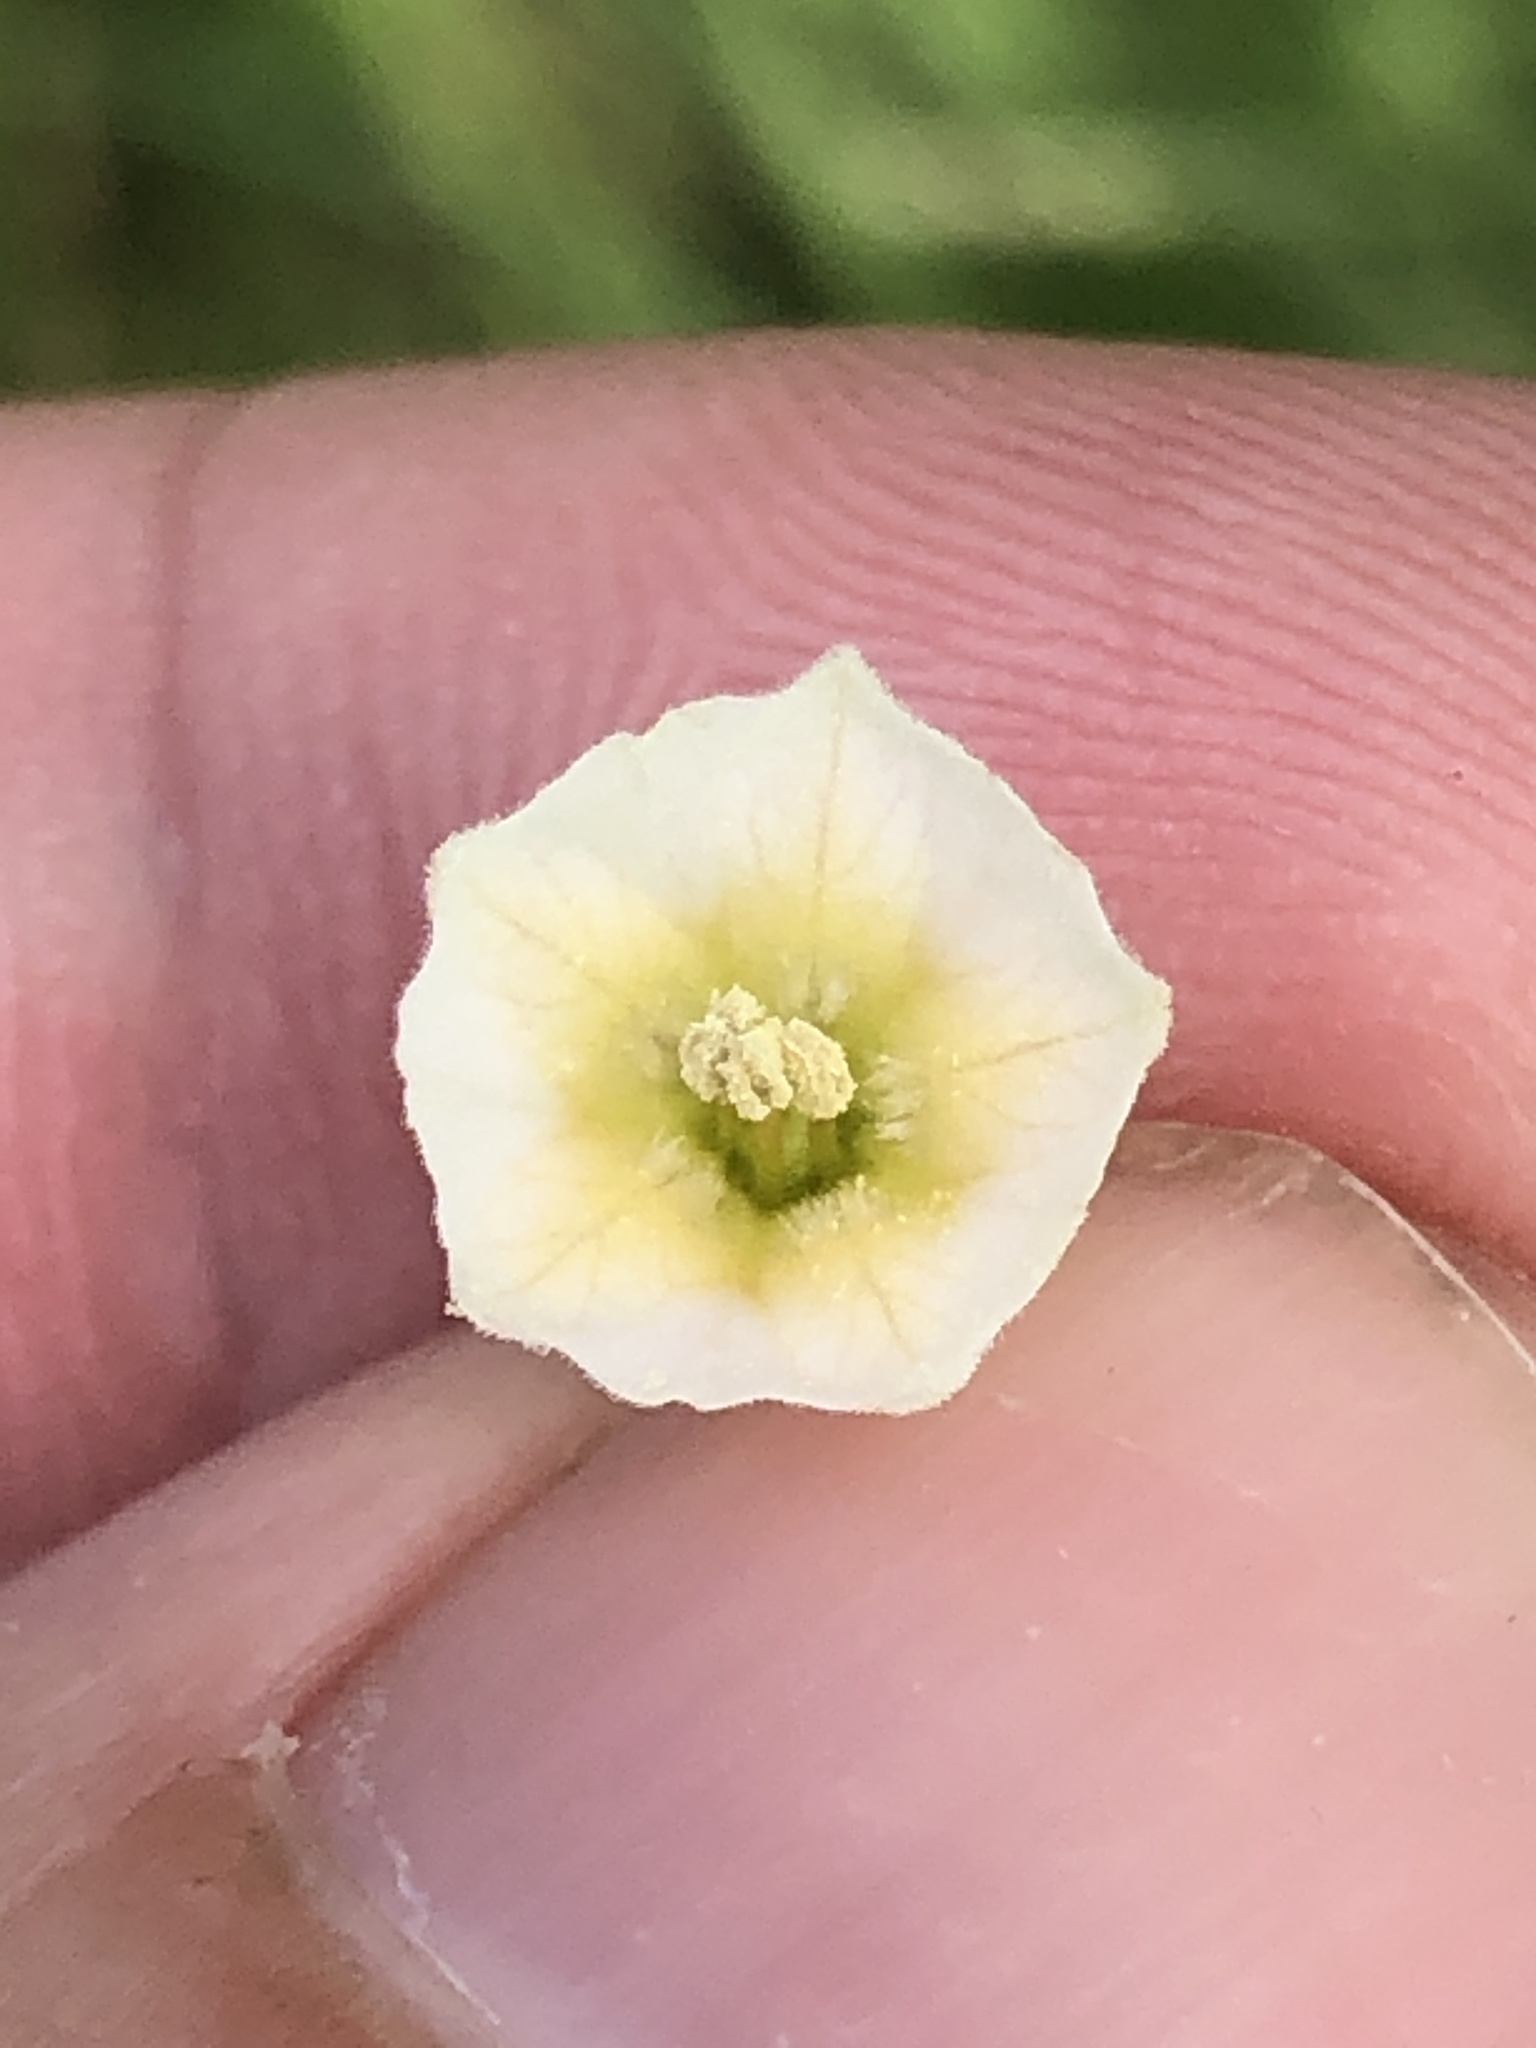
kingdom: Plantae
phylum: Tracheophyta
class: Magnoliopsida
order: Solanales
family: Solanaceae
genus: Physalis
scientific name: Physalis cinerascens
